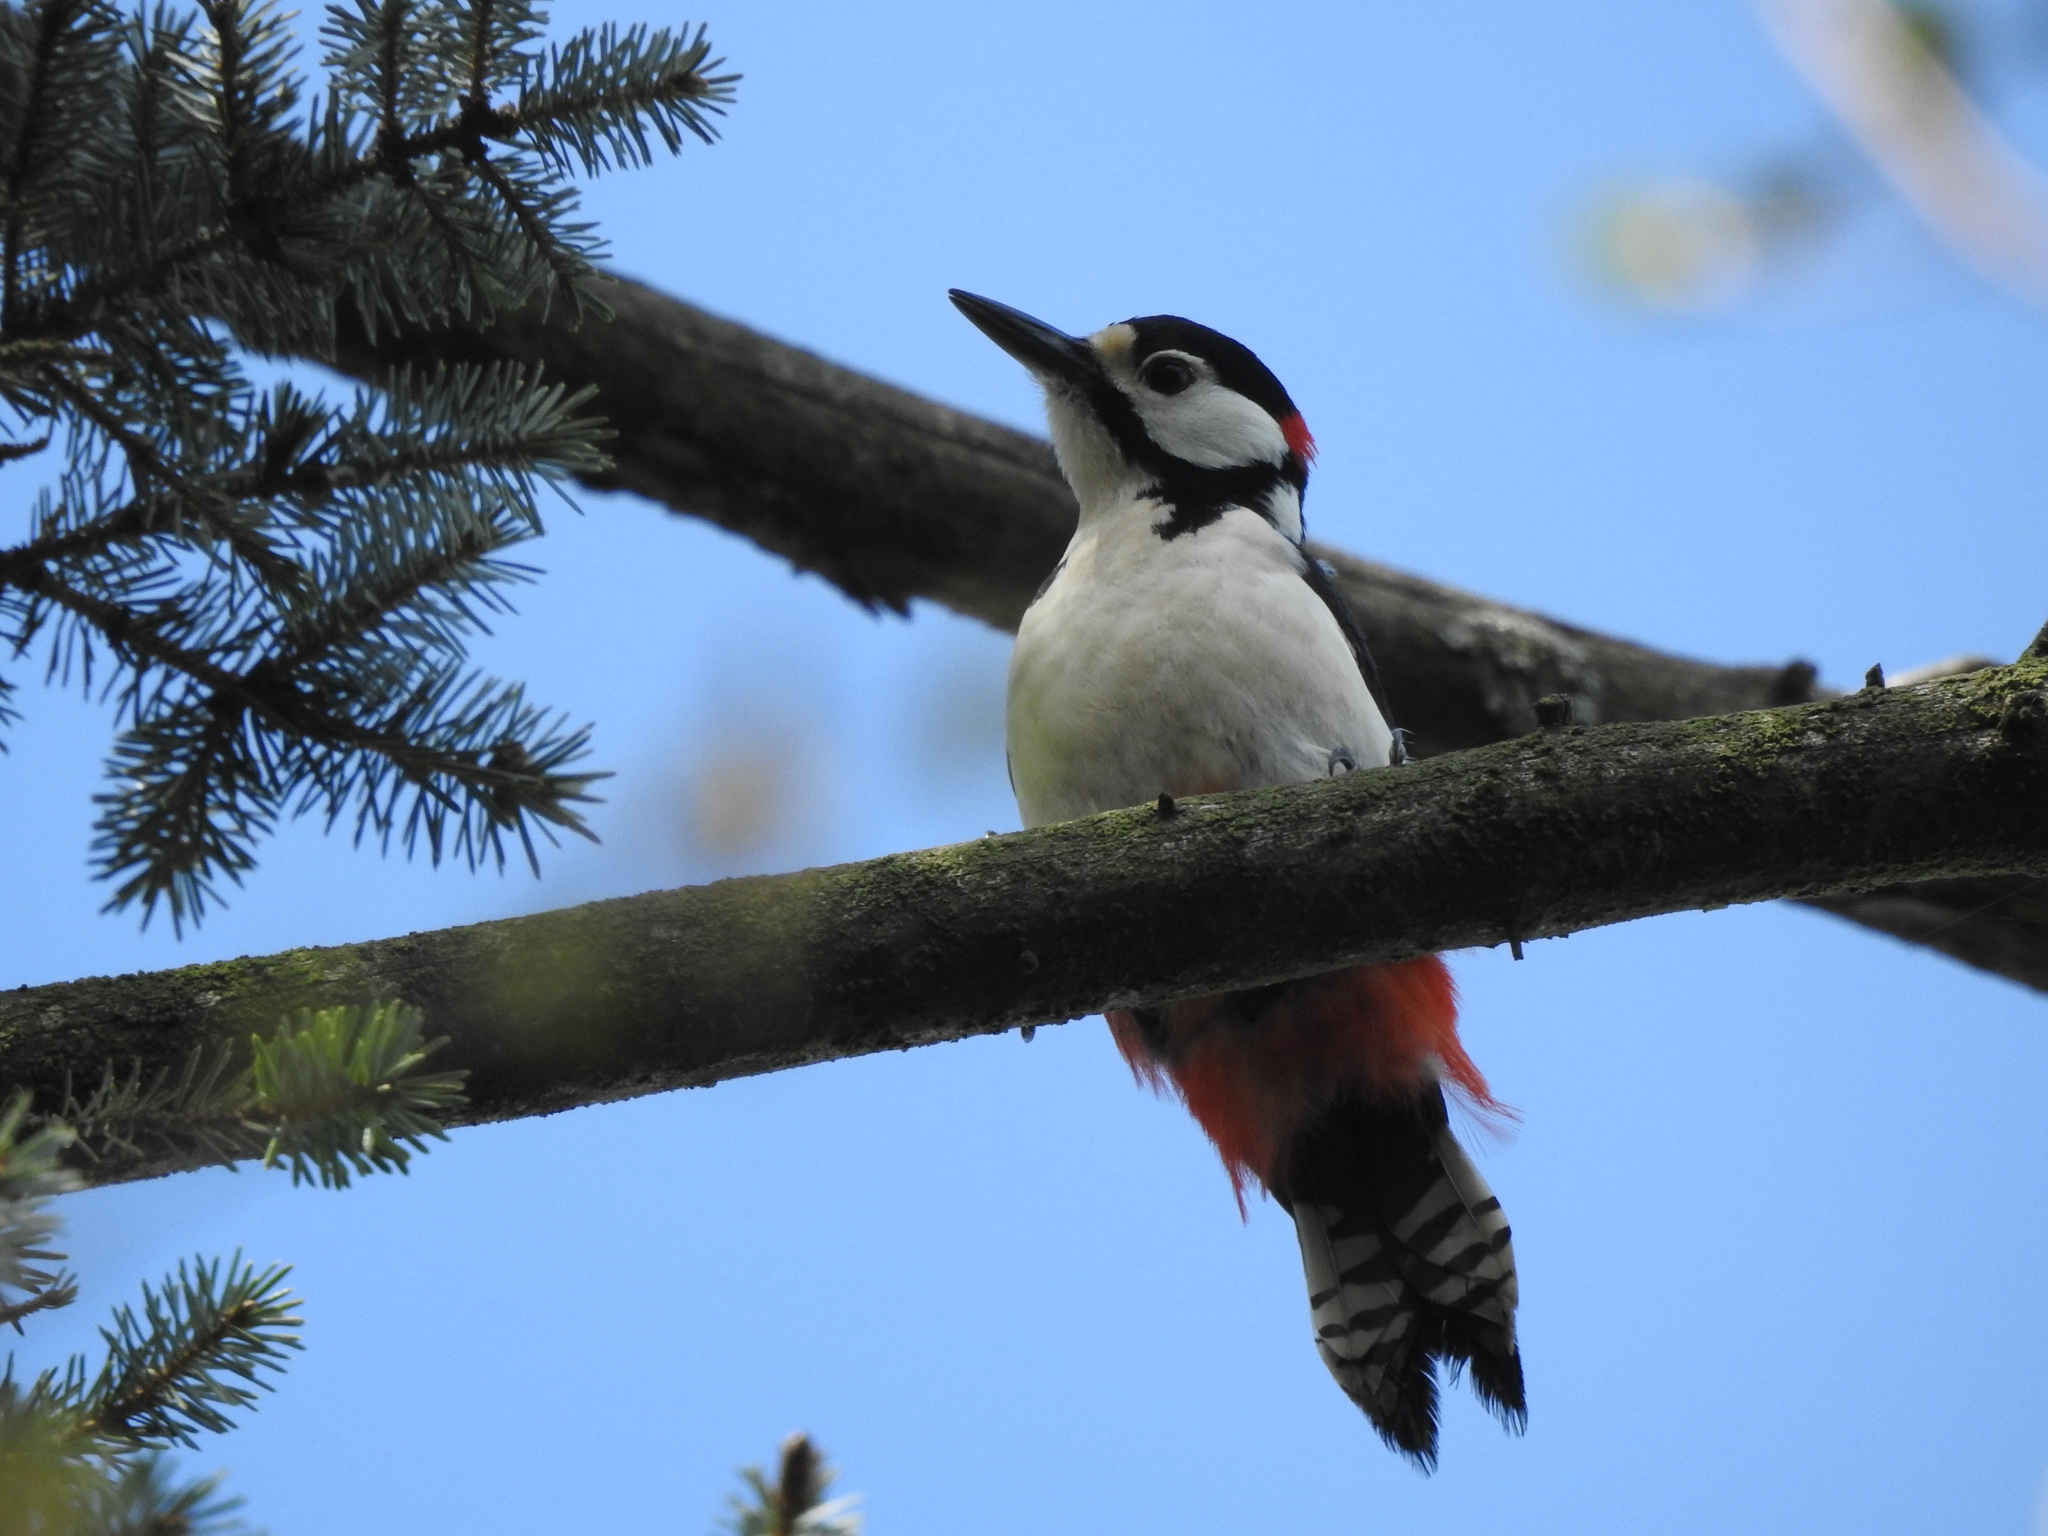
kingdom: Animalia
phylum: Chordata
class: Aves
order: Piciformes
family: Picidae
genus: Dendrocopos
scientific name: Dendrocopos major
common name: Great spotted woodpecker
